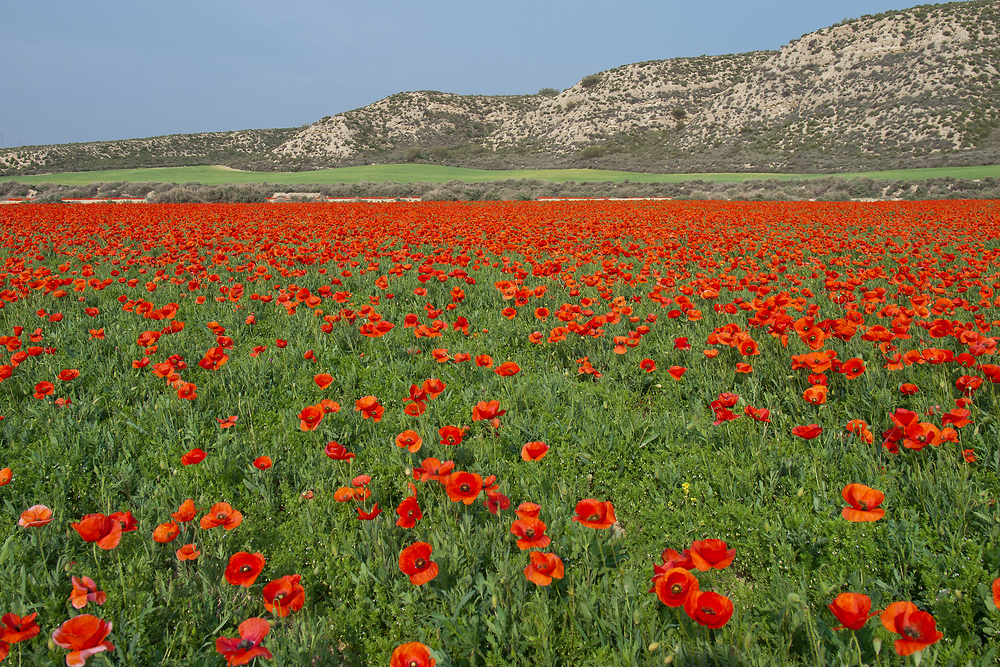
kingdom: Plantae
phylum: Tracheophyta
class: Magnoliopsida
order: Ranunculales
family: Papaveraceae
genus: Papaver
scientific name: Papaver rhoeas
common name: Corn poppy
